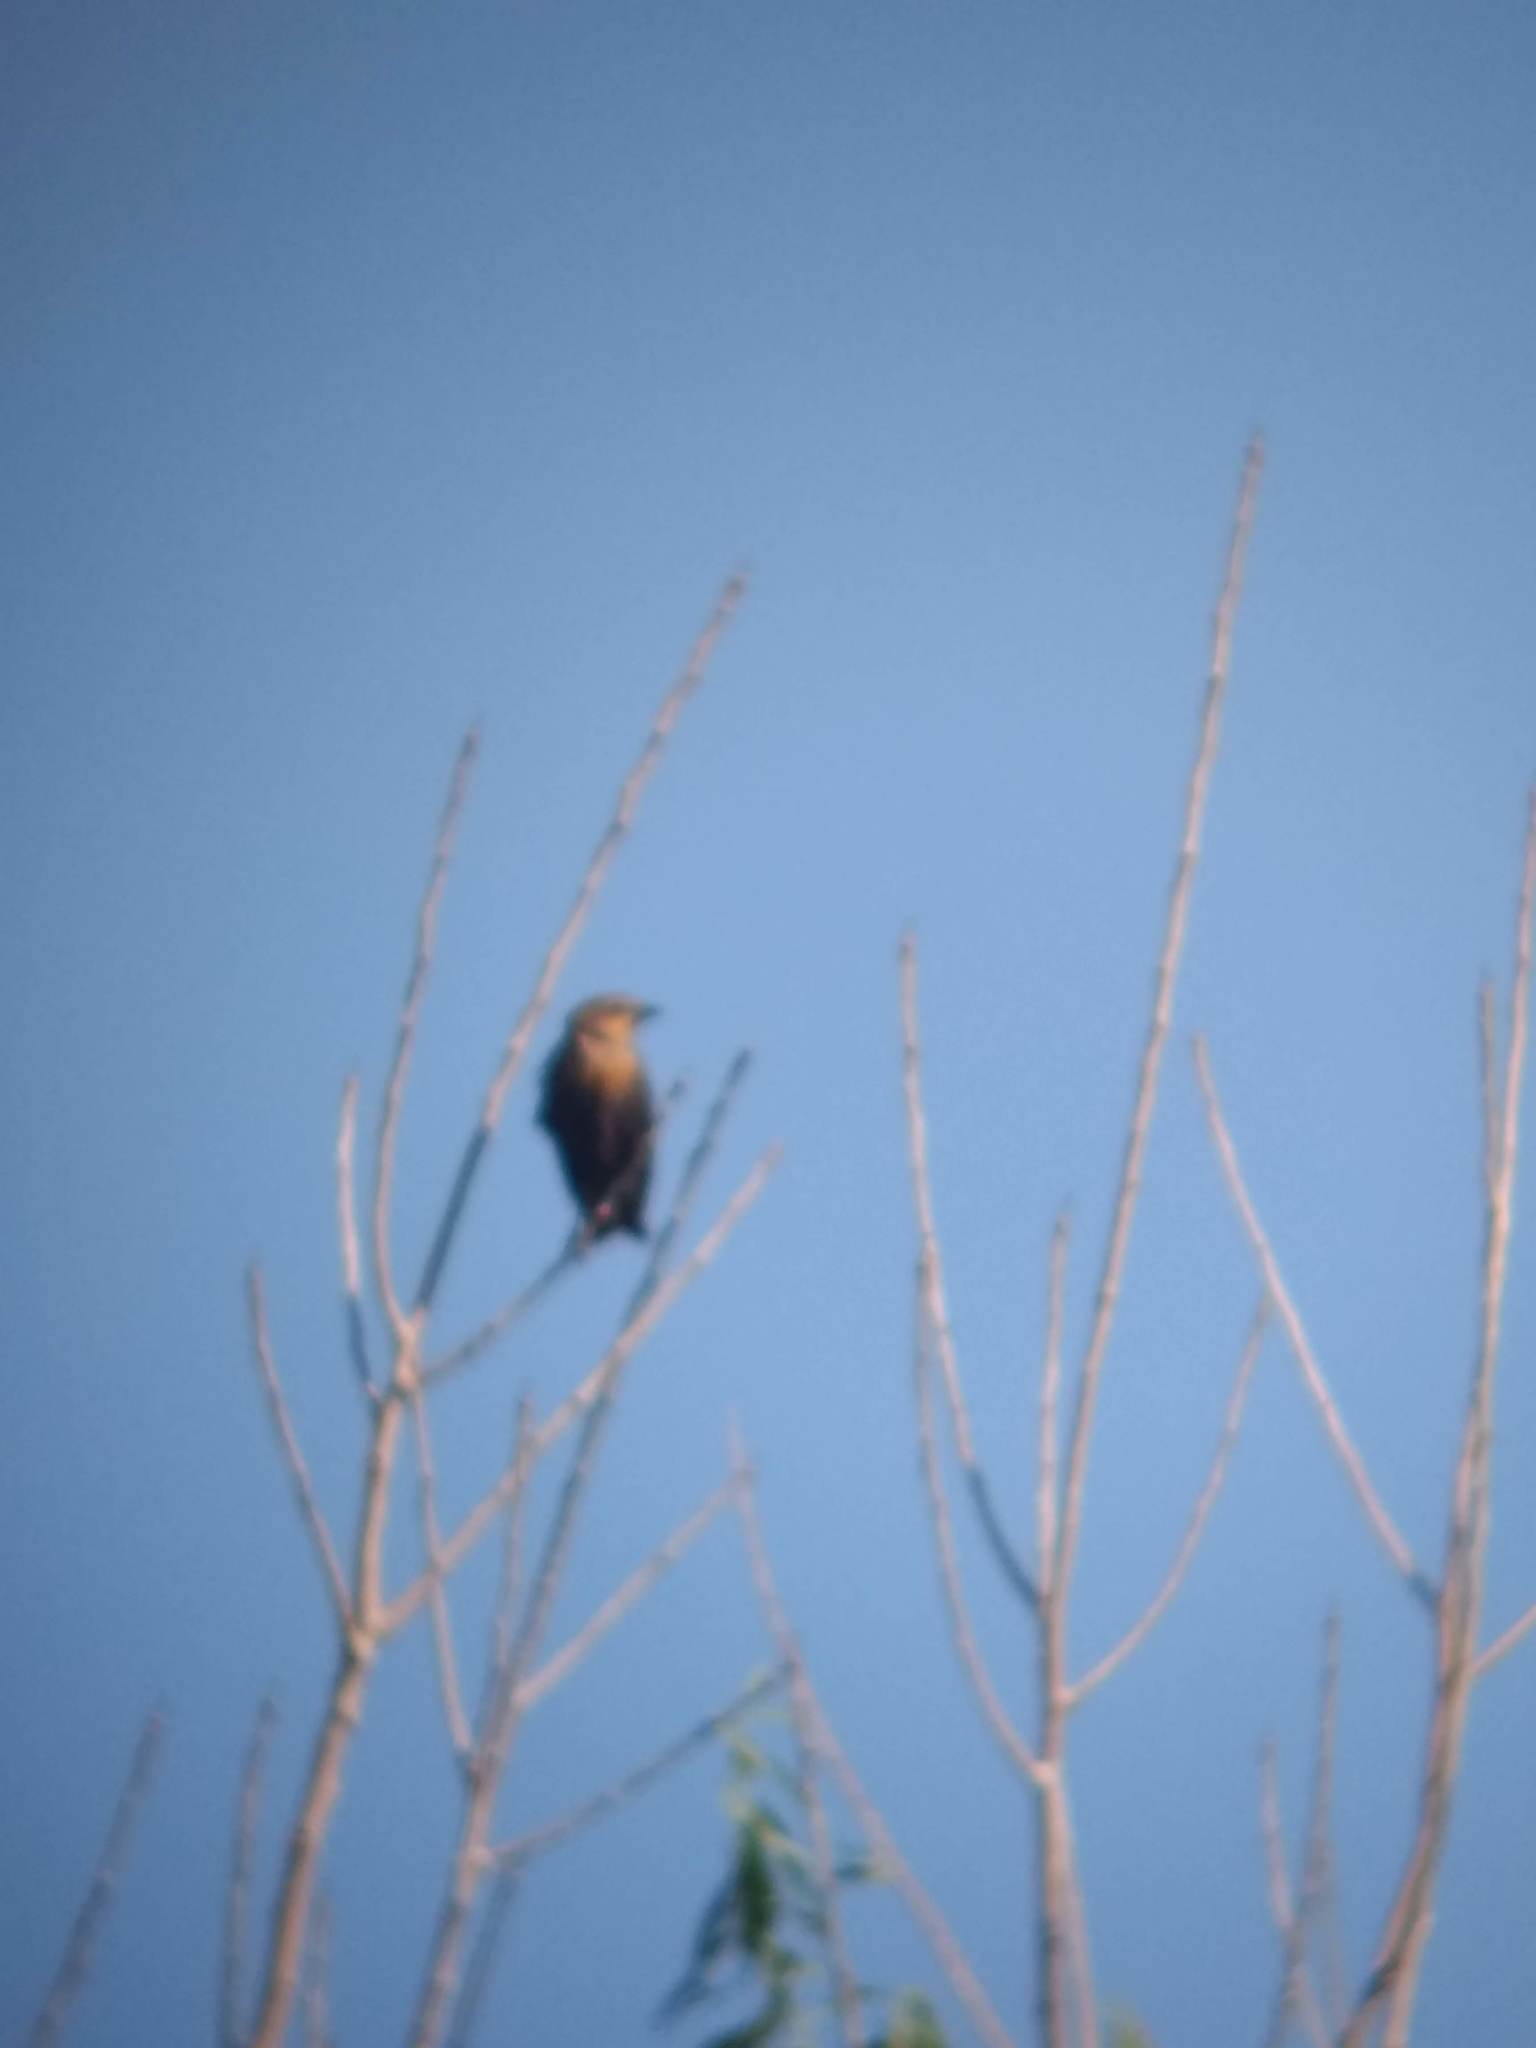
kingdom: Animalia
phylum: Chordata
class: Aves
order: Passeriformes
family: Icteridae
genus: Xanthocephalus
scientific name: Xanthocephalus xanthocephalus
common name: Yellow-headed blackbird
